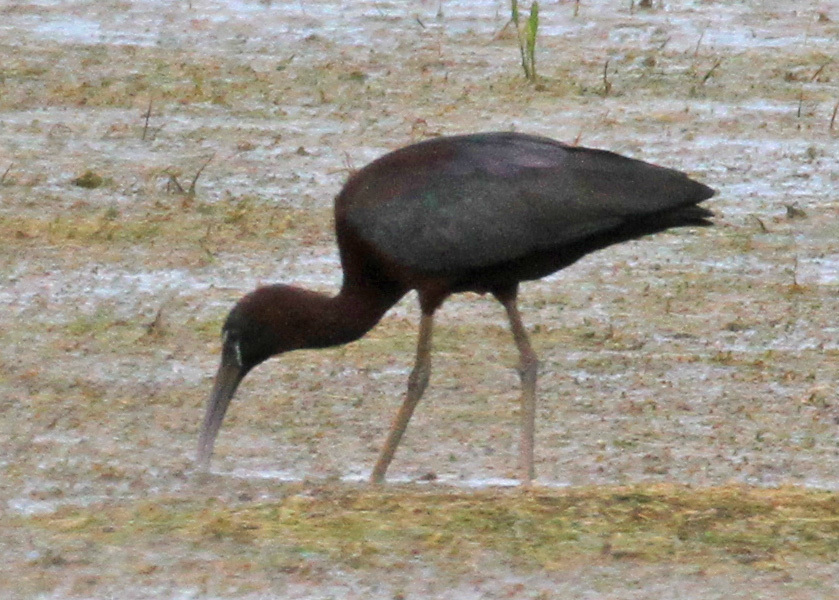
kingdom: Animalia
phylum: Chordata
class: Aves
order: Pelecaniformes
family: Threskiornithidae
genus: Plegadis
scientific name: Plegadis falcinellus
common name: Glossy ibis
